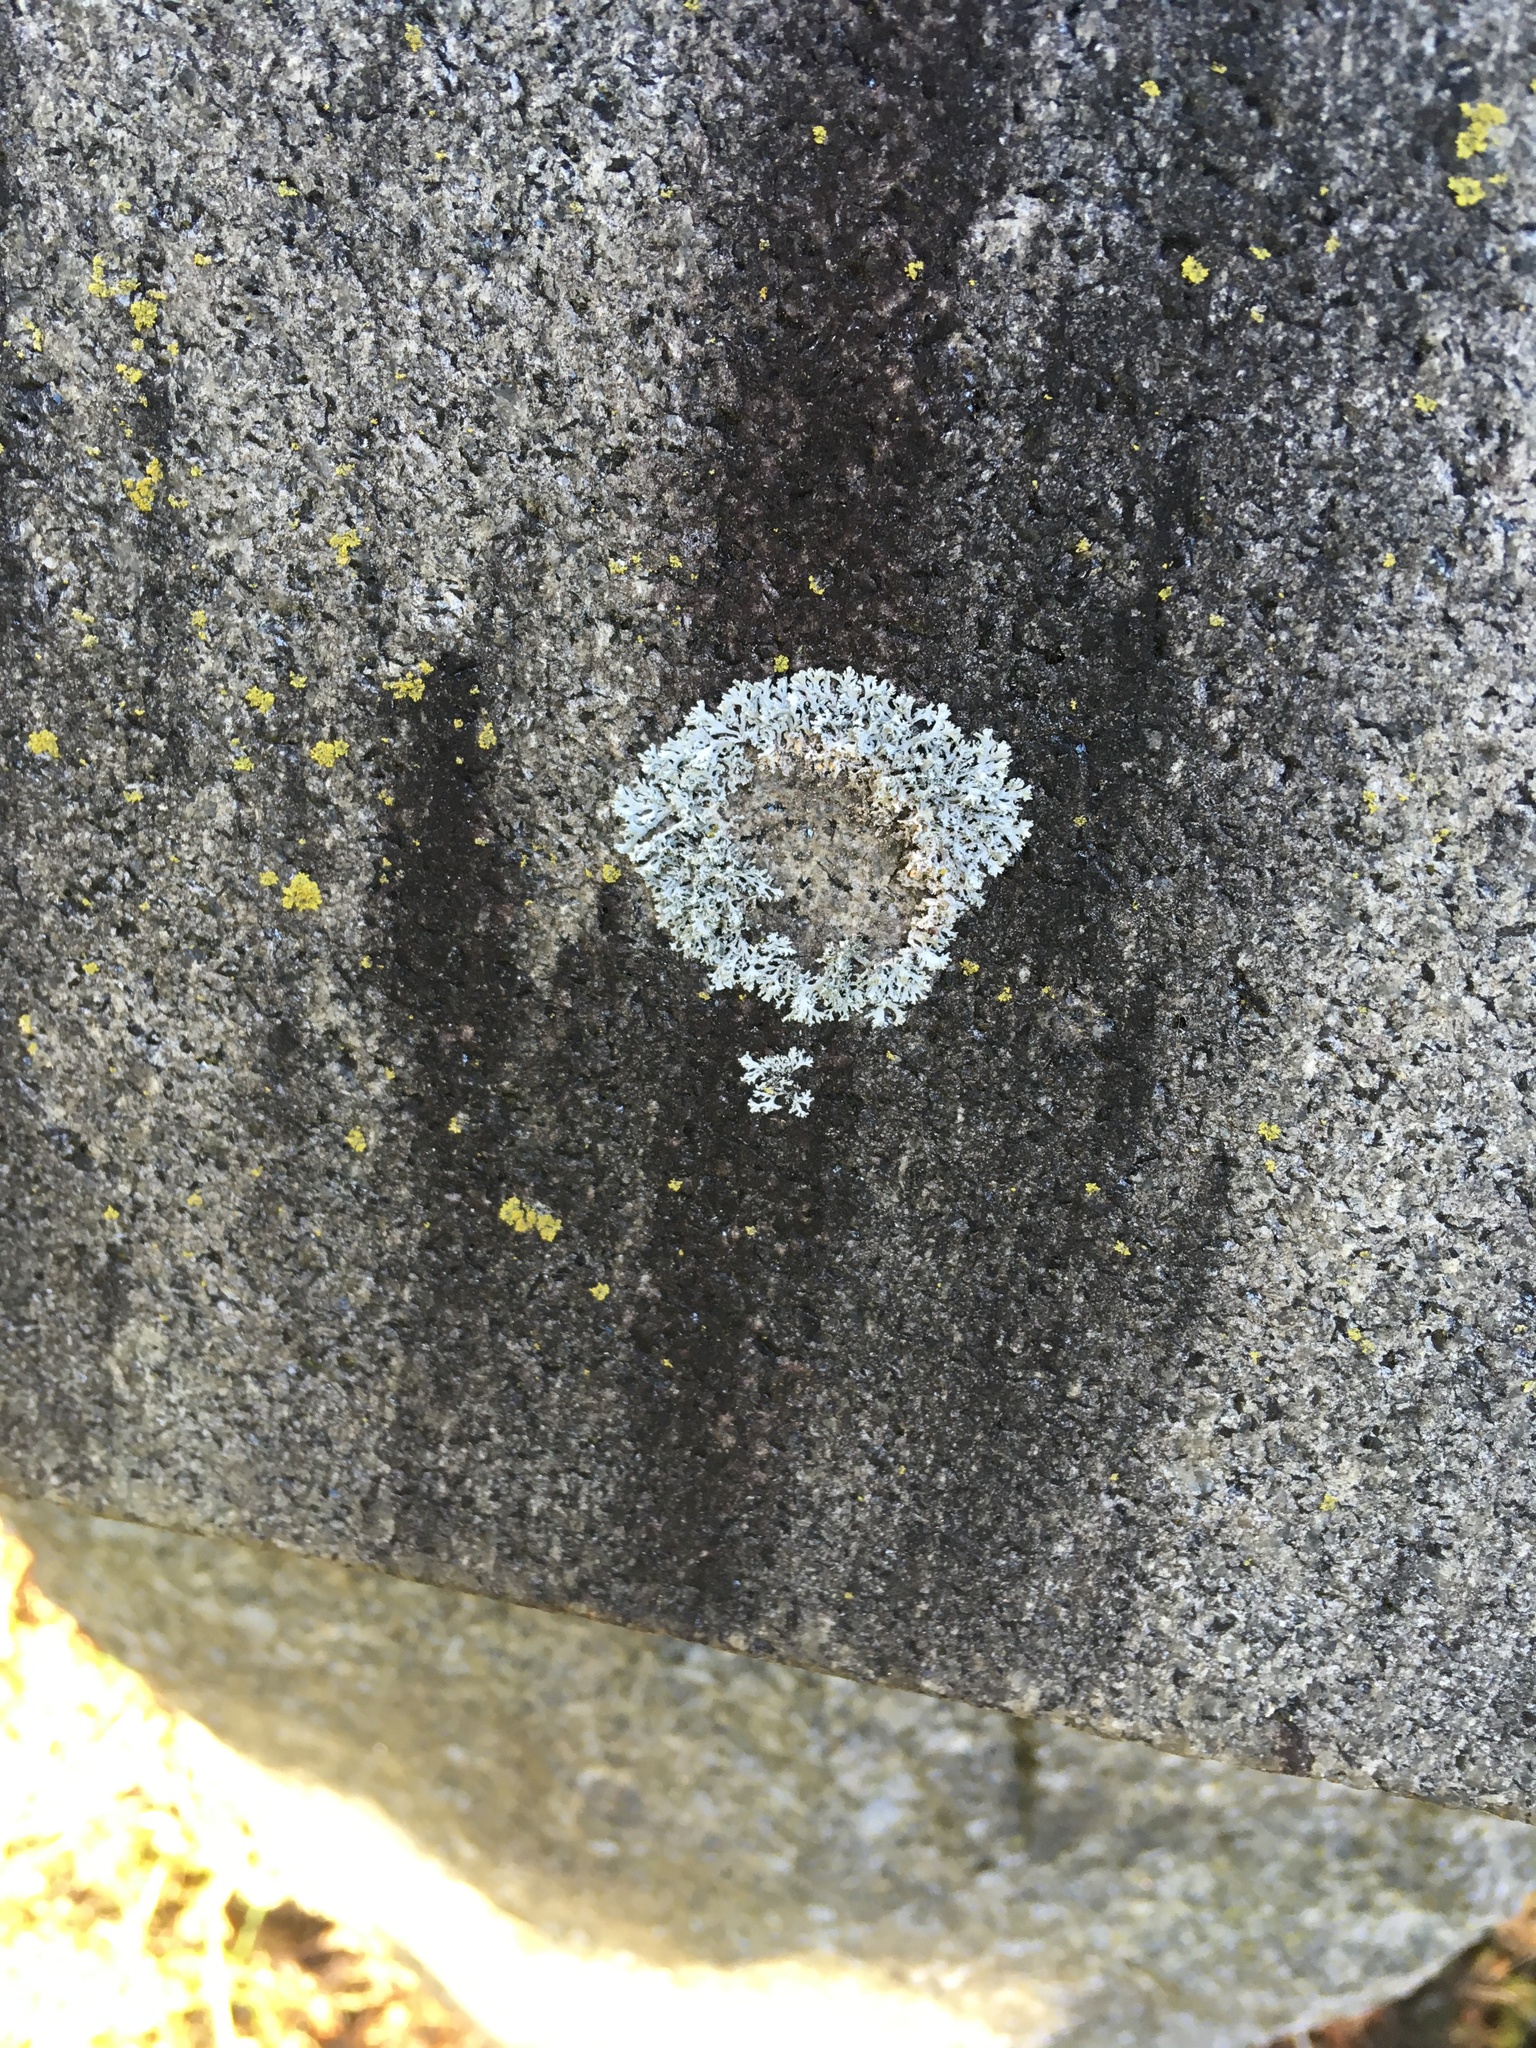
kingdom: Fungi
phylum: Ascomycota
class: Lecanoromycetes
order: Caliciales
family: Physciaceae
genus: Physcia
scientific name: Physcia stellaris
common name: Star rosette lichen
